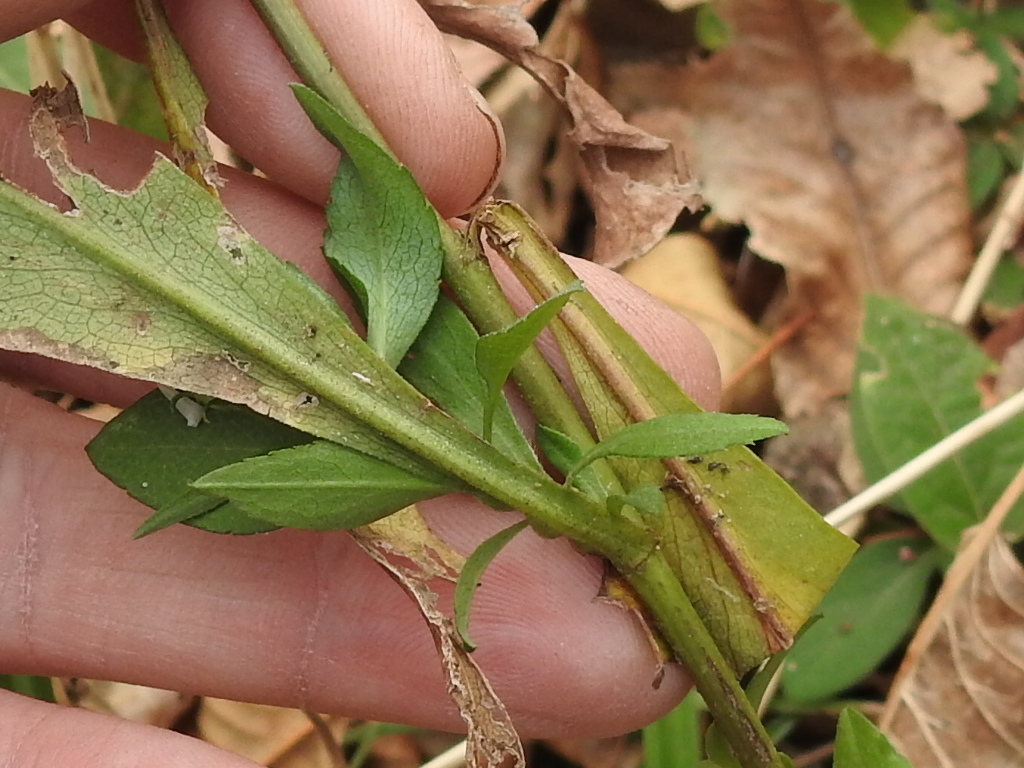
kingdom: Plantae
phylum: Tracheophyta
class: Magnoliopsida
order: Asterales
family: Asteraceae
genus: Symphyotrichum
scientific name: Symphyotrichum lanceolatum
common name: Panicled aster
